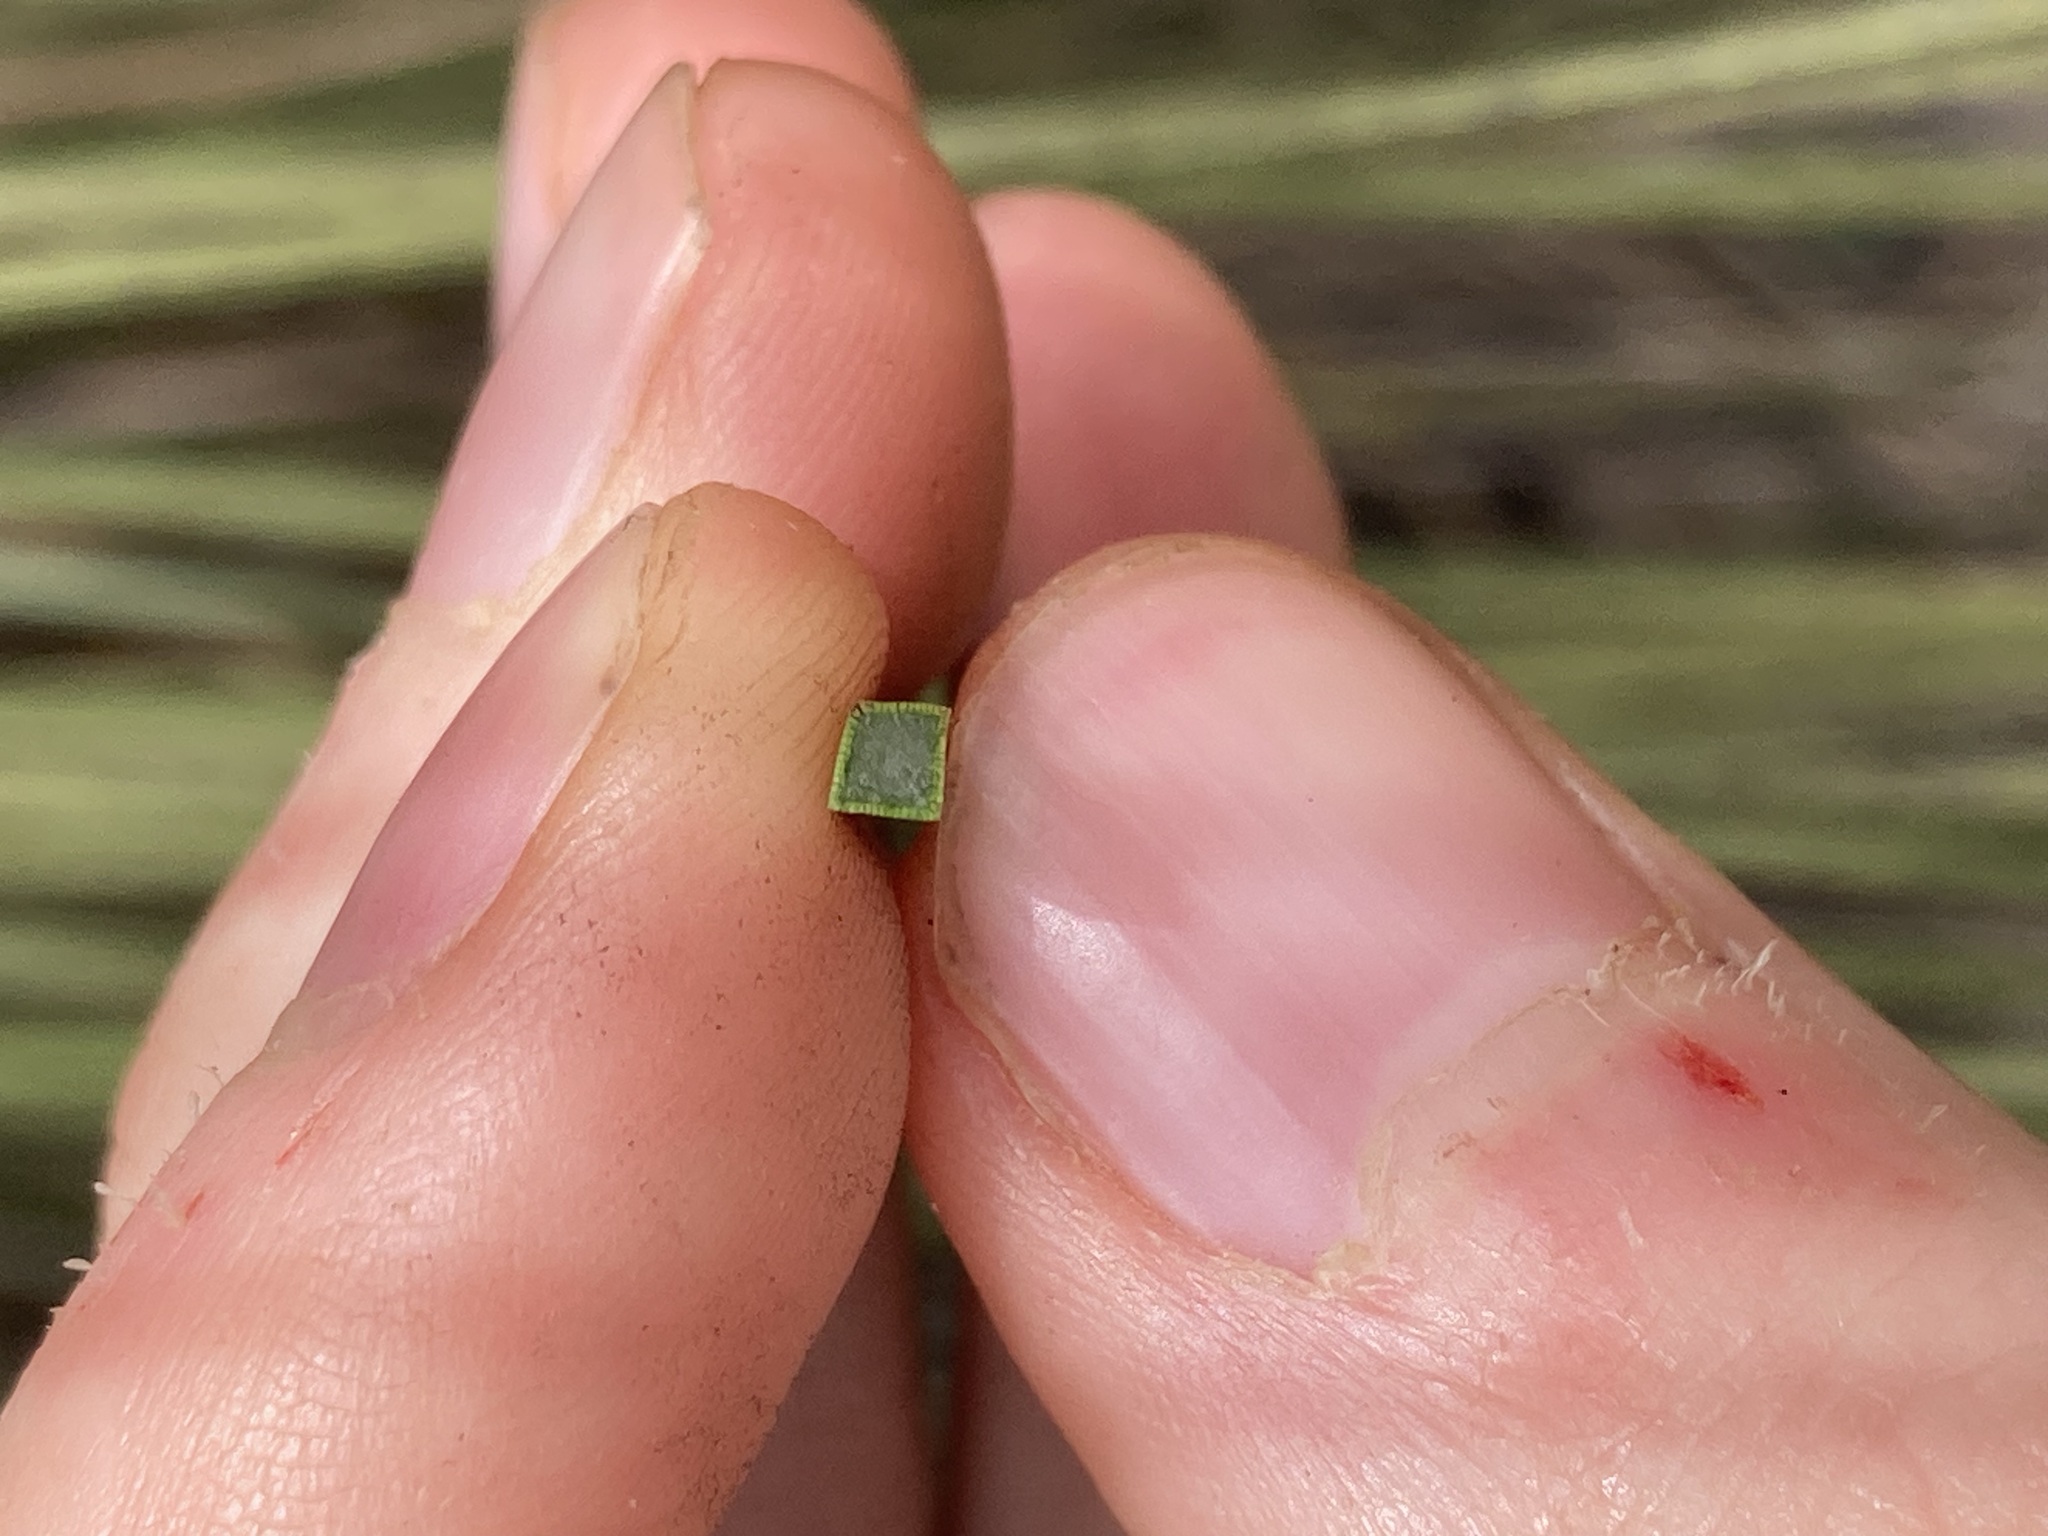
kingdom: Plantae
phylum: Tracheophyta
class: Liliopsida
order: Asparagales
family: Asphodelaceae
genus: Xanthorrhoea
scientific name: Xanthorrhoea preissii
